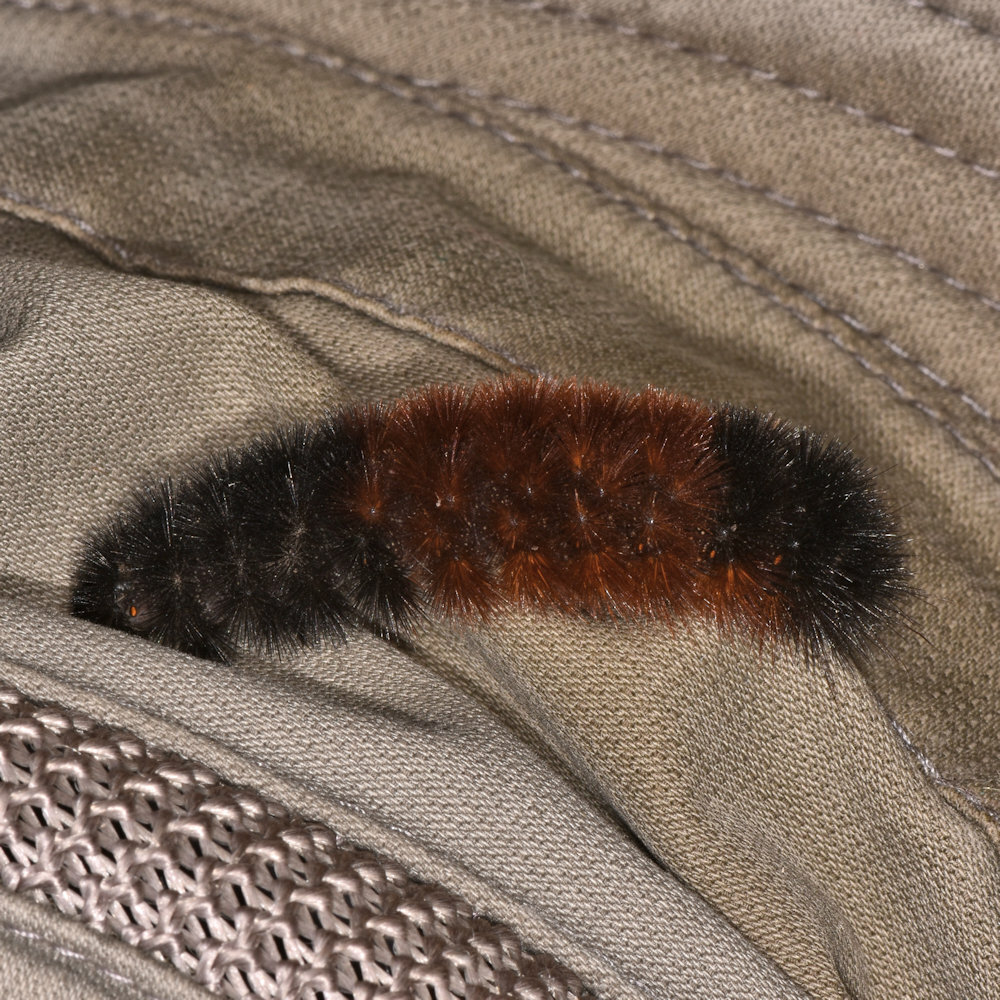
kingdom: Animalia
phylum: Arthropoda
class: Insecta
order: Lepidoptera
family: Erebidae
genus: Pyrrharctia
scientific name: Pyrrharctia isabella
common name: Isabella tiger moth
